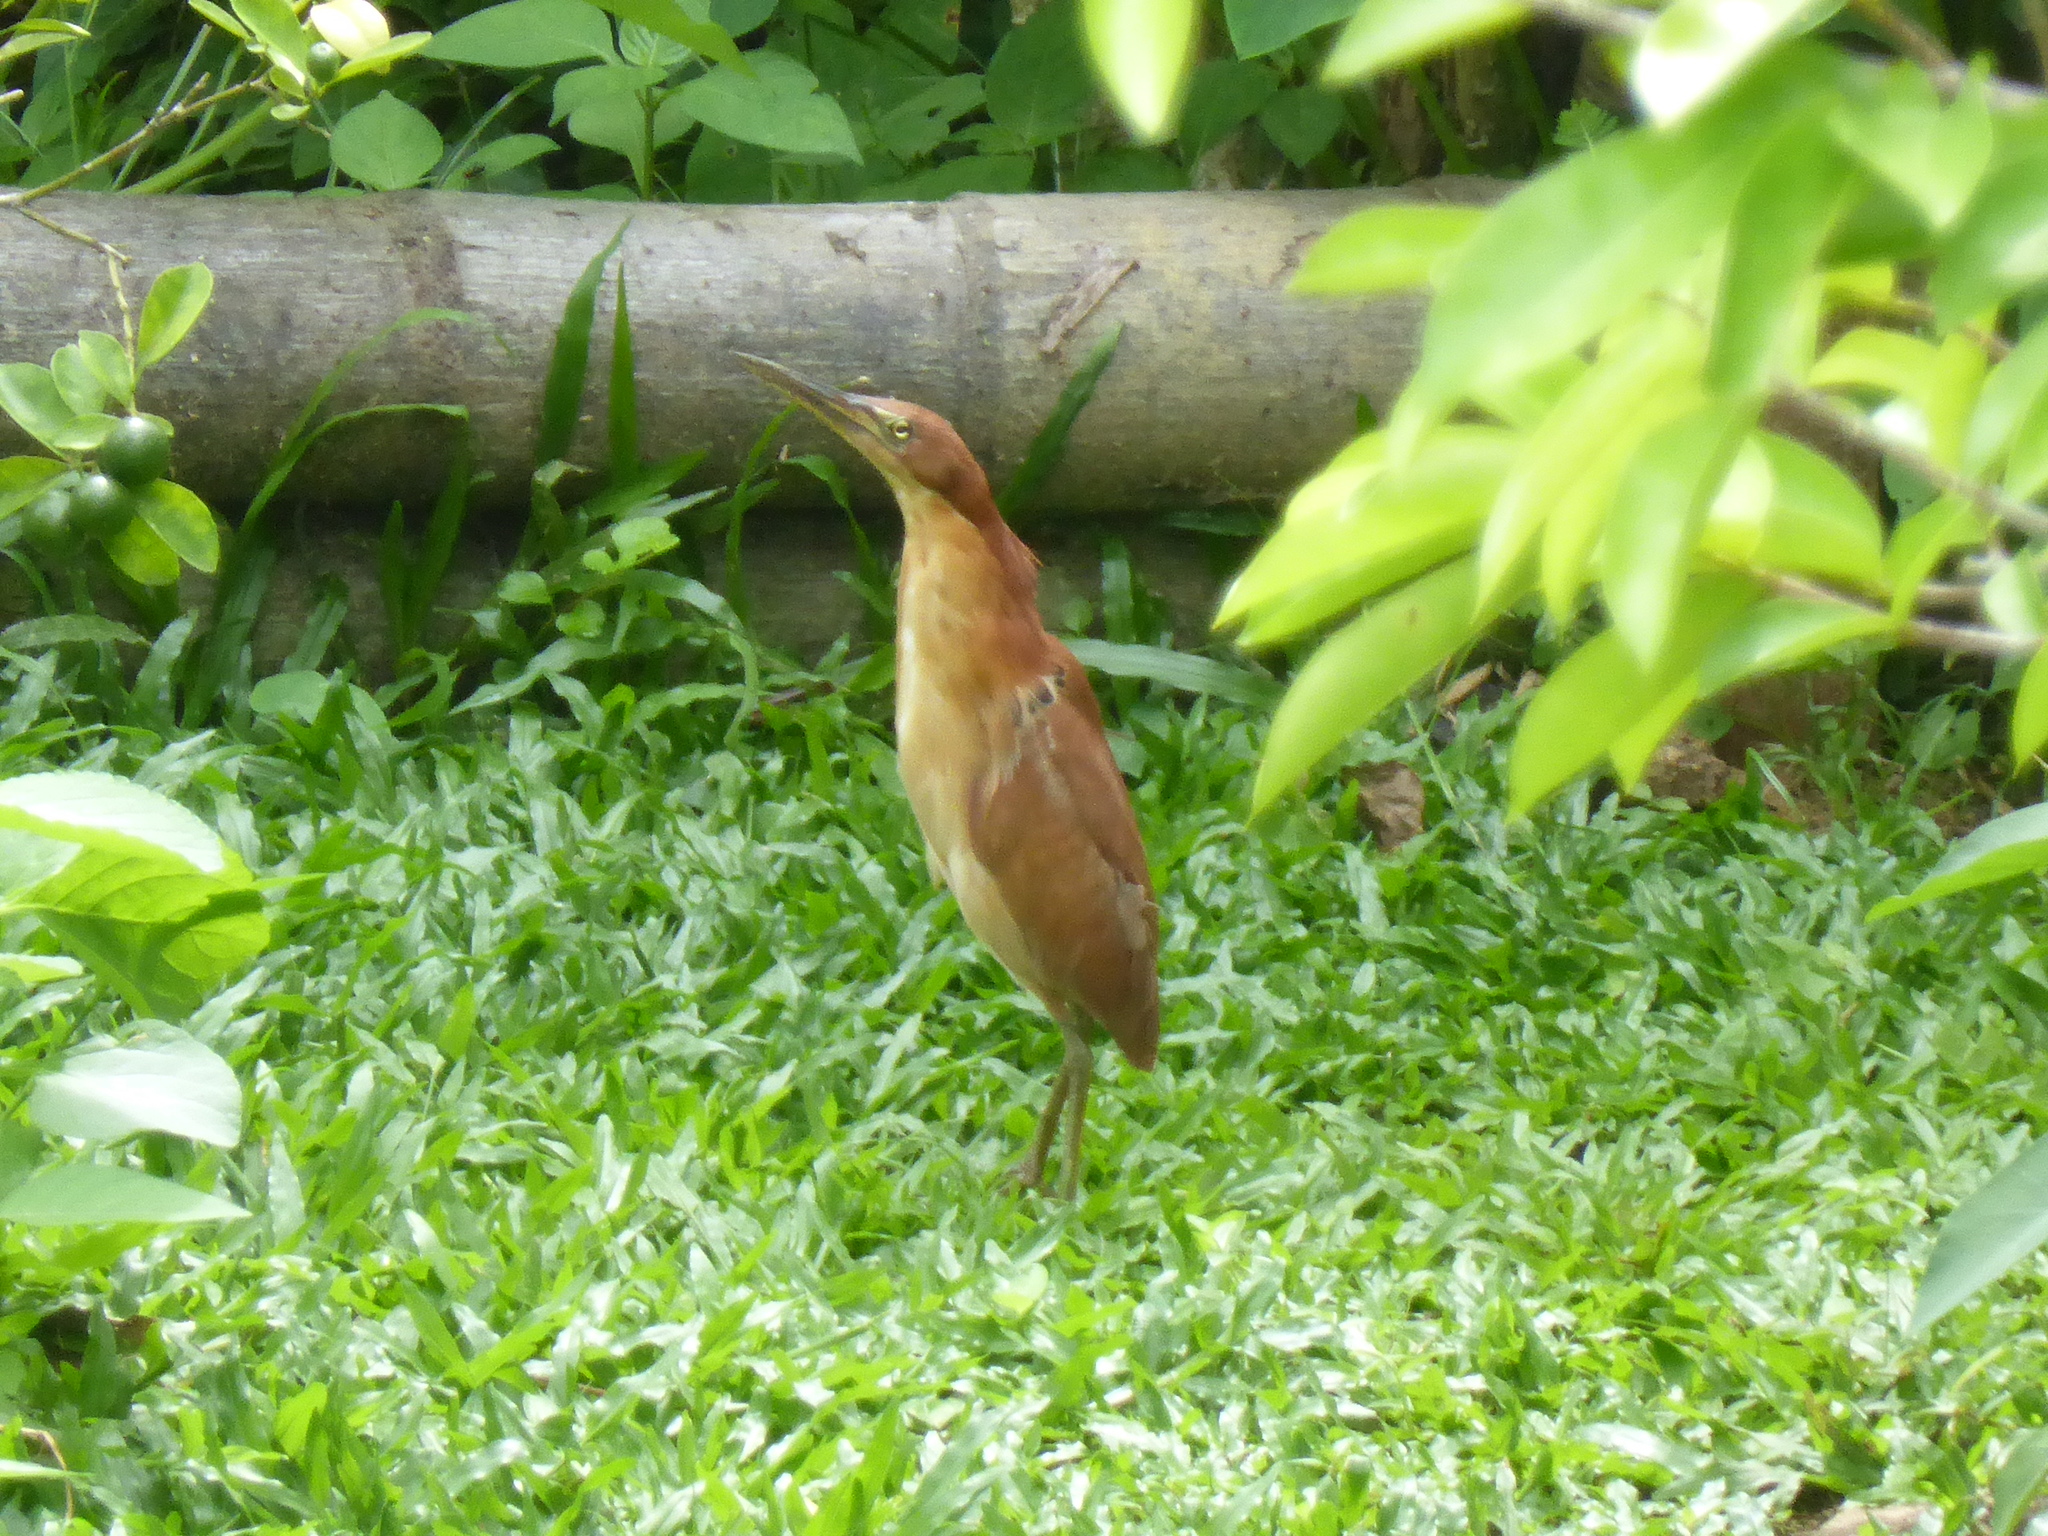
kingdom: Animalia
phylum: Chordata
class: Aves
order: Pelecaniformes
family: Ardeidae
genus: Ixobrychus
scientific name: Ixobrychus cinnamomeus
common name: Cinnamon bittern
